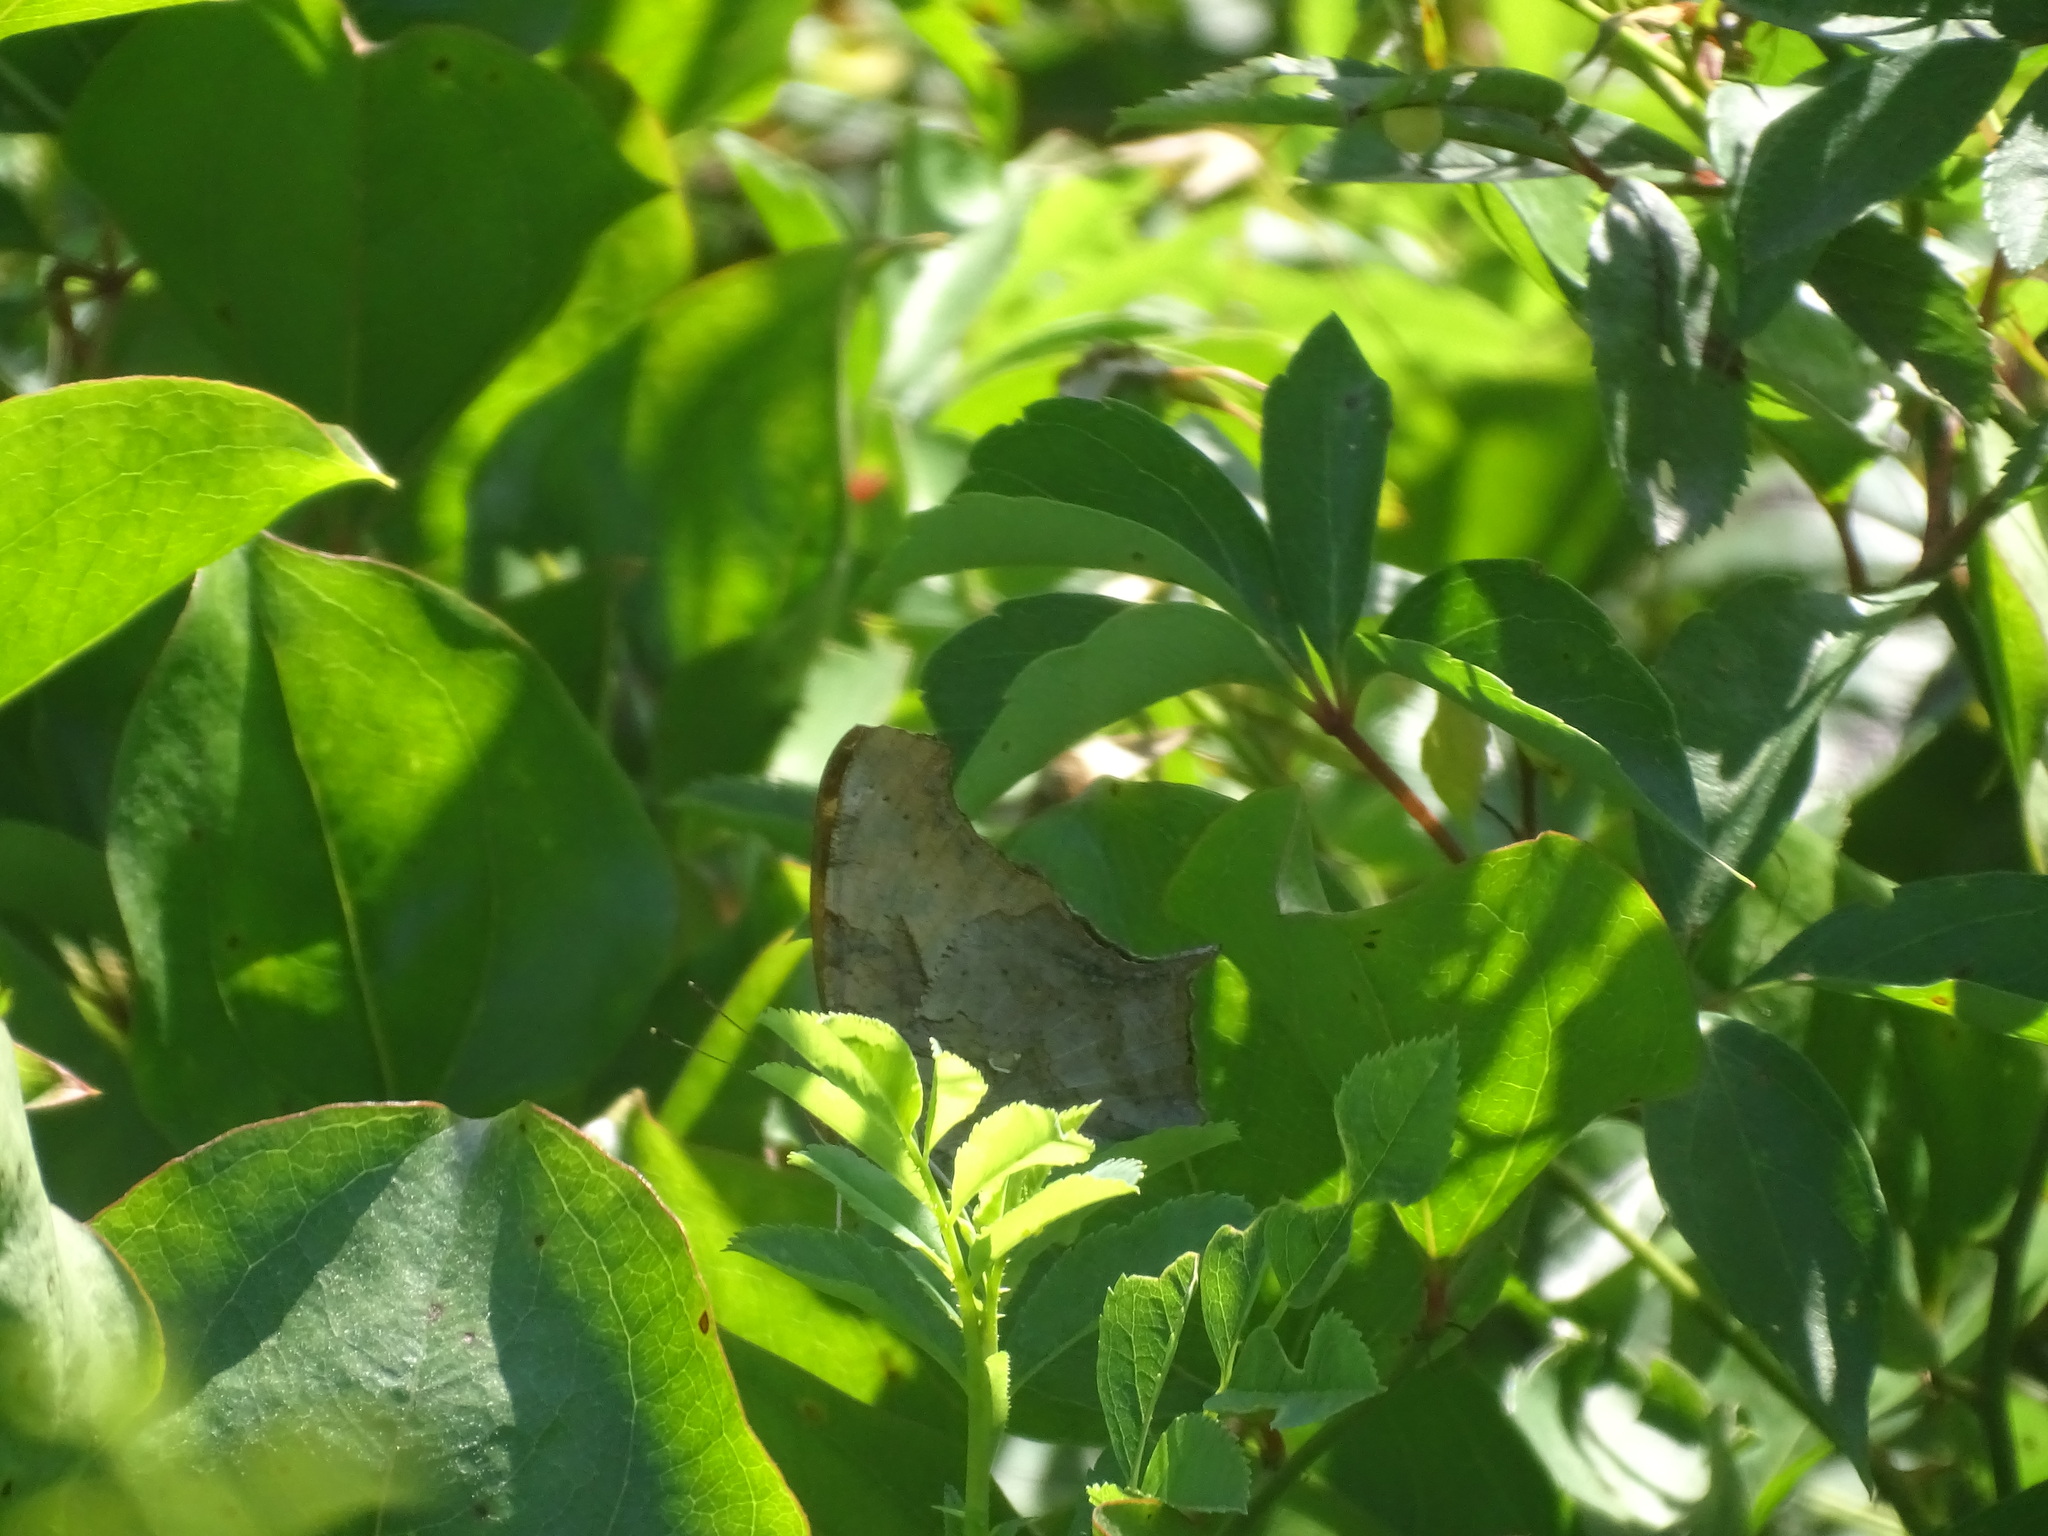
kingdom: Animalia
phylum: Arthropoda
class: Insecta
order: Lepidoptera
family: Nymphalidae
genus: Polygonia
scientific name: Polygonia interrogationis
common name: Question mark
